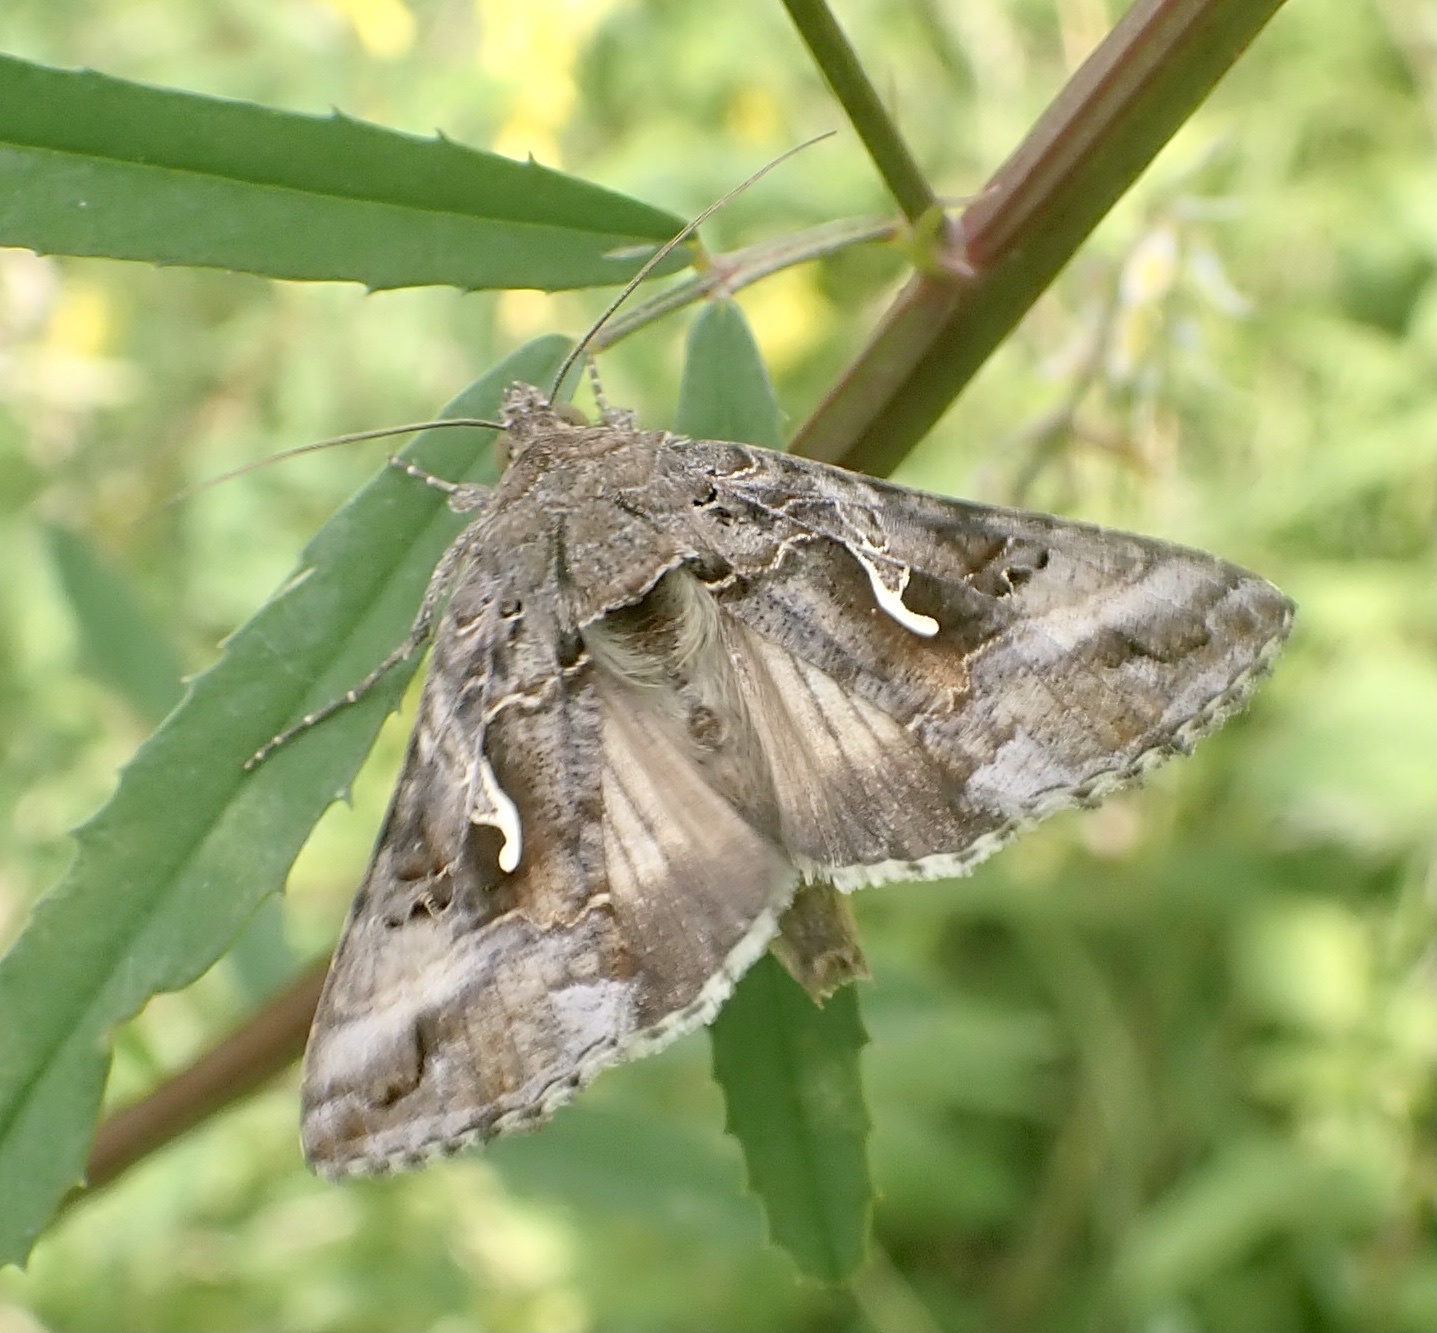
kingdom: Animalia
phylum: Arthropoda
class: Insecta
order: Lepidoptera
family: Noctuidae
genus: Autographa
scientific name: Autographa gamma
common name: Silver y
